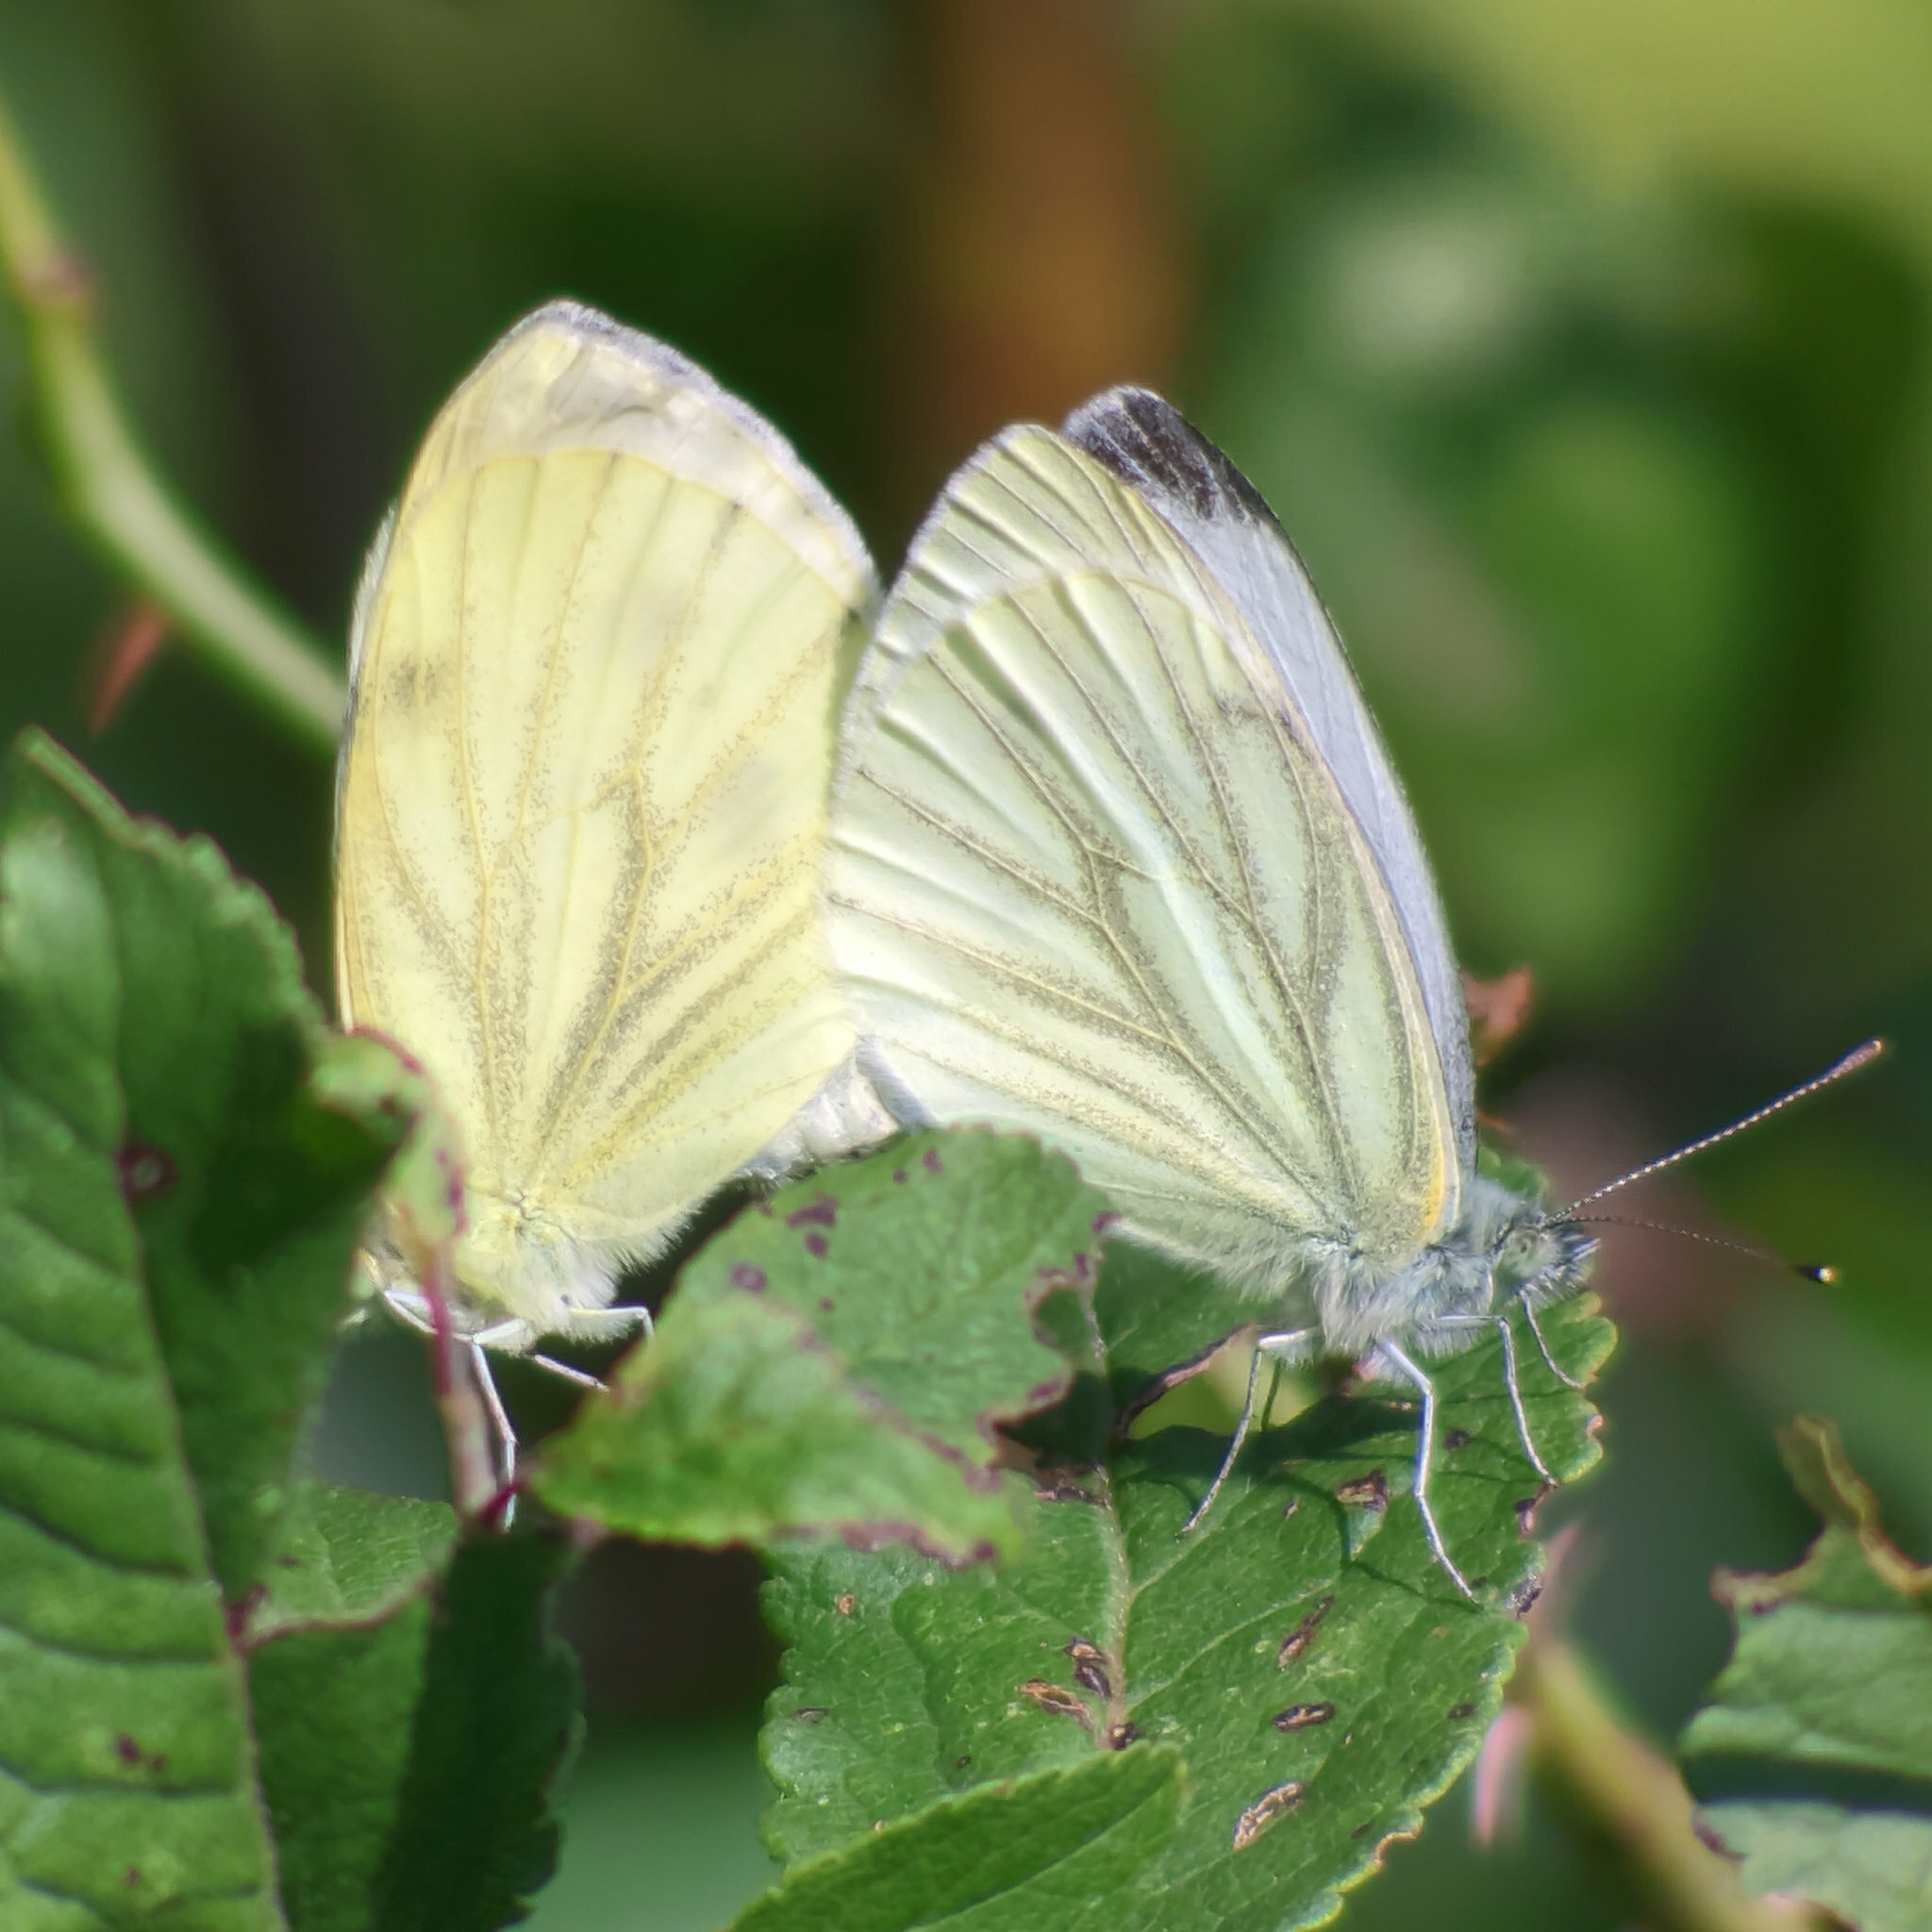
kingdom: Animalia
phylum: Arthropoda
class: Insecta
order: Lepidoptera
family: Pieridae
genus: Pieris
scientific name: Pieris napi
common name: Green-veined white
